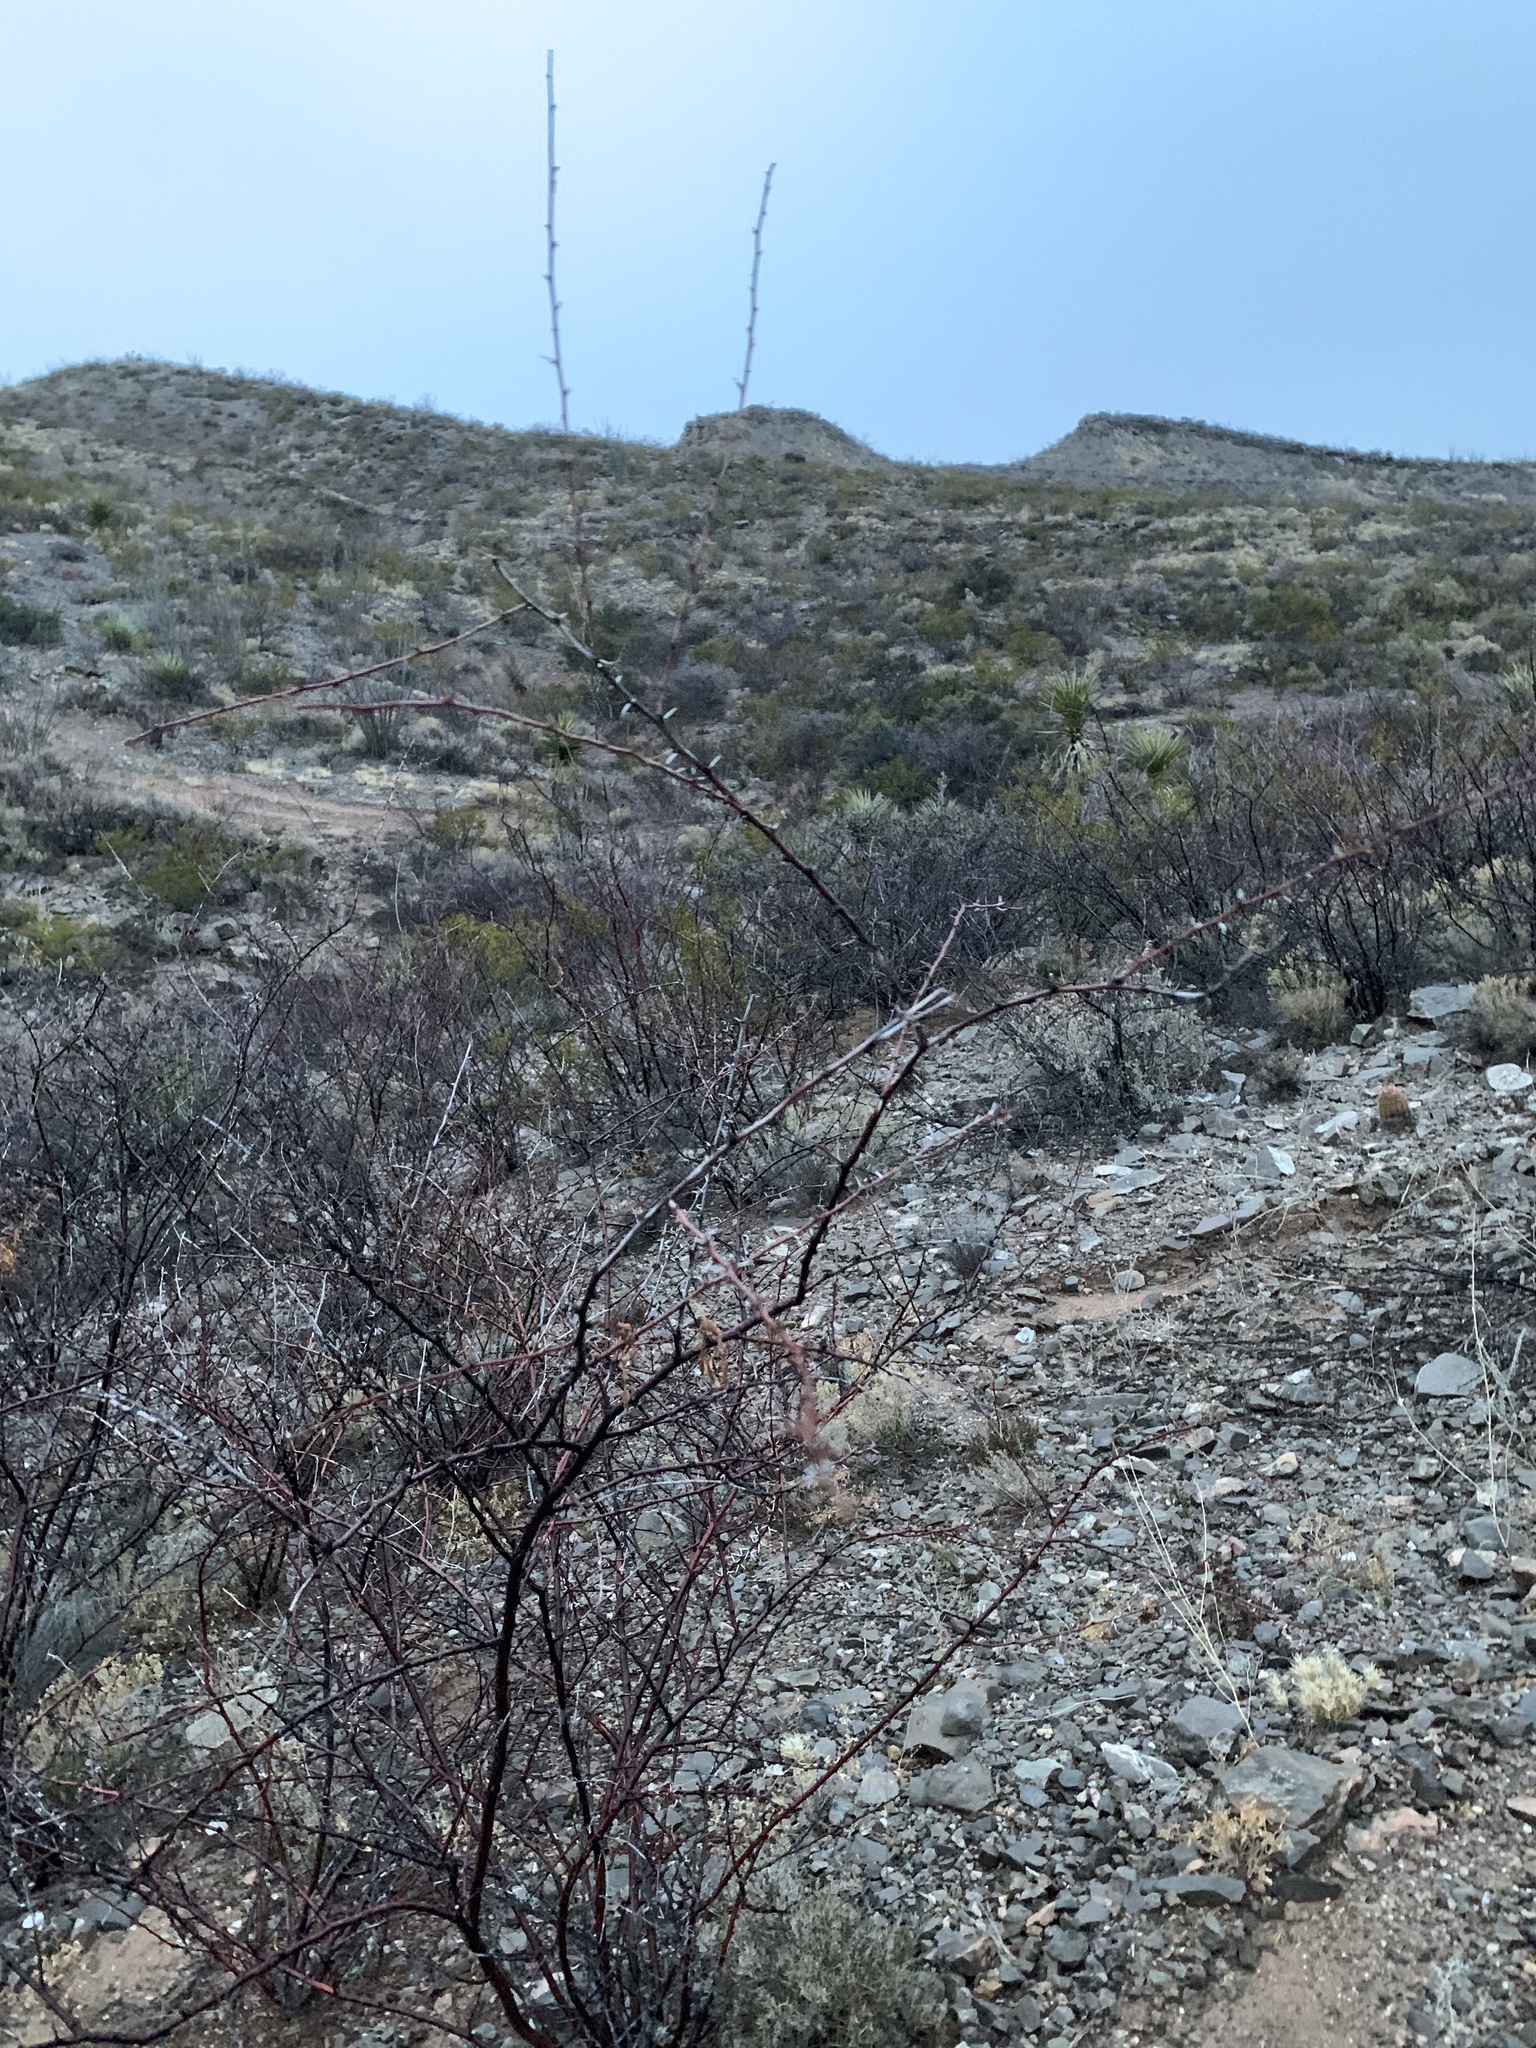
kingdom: Plantae
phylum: Tracheophyta
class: Magnoliopsida
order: Fabales
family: Fabaceae
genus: Vachellia
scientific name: Vachellia constricta
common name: Mescat acacia
